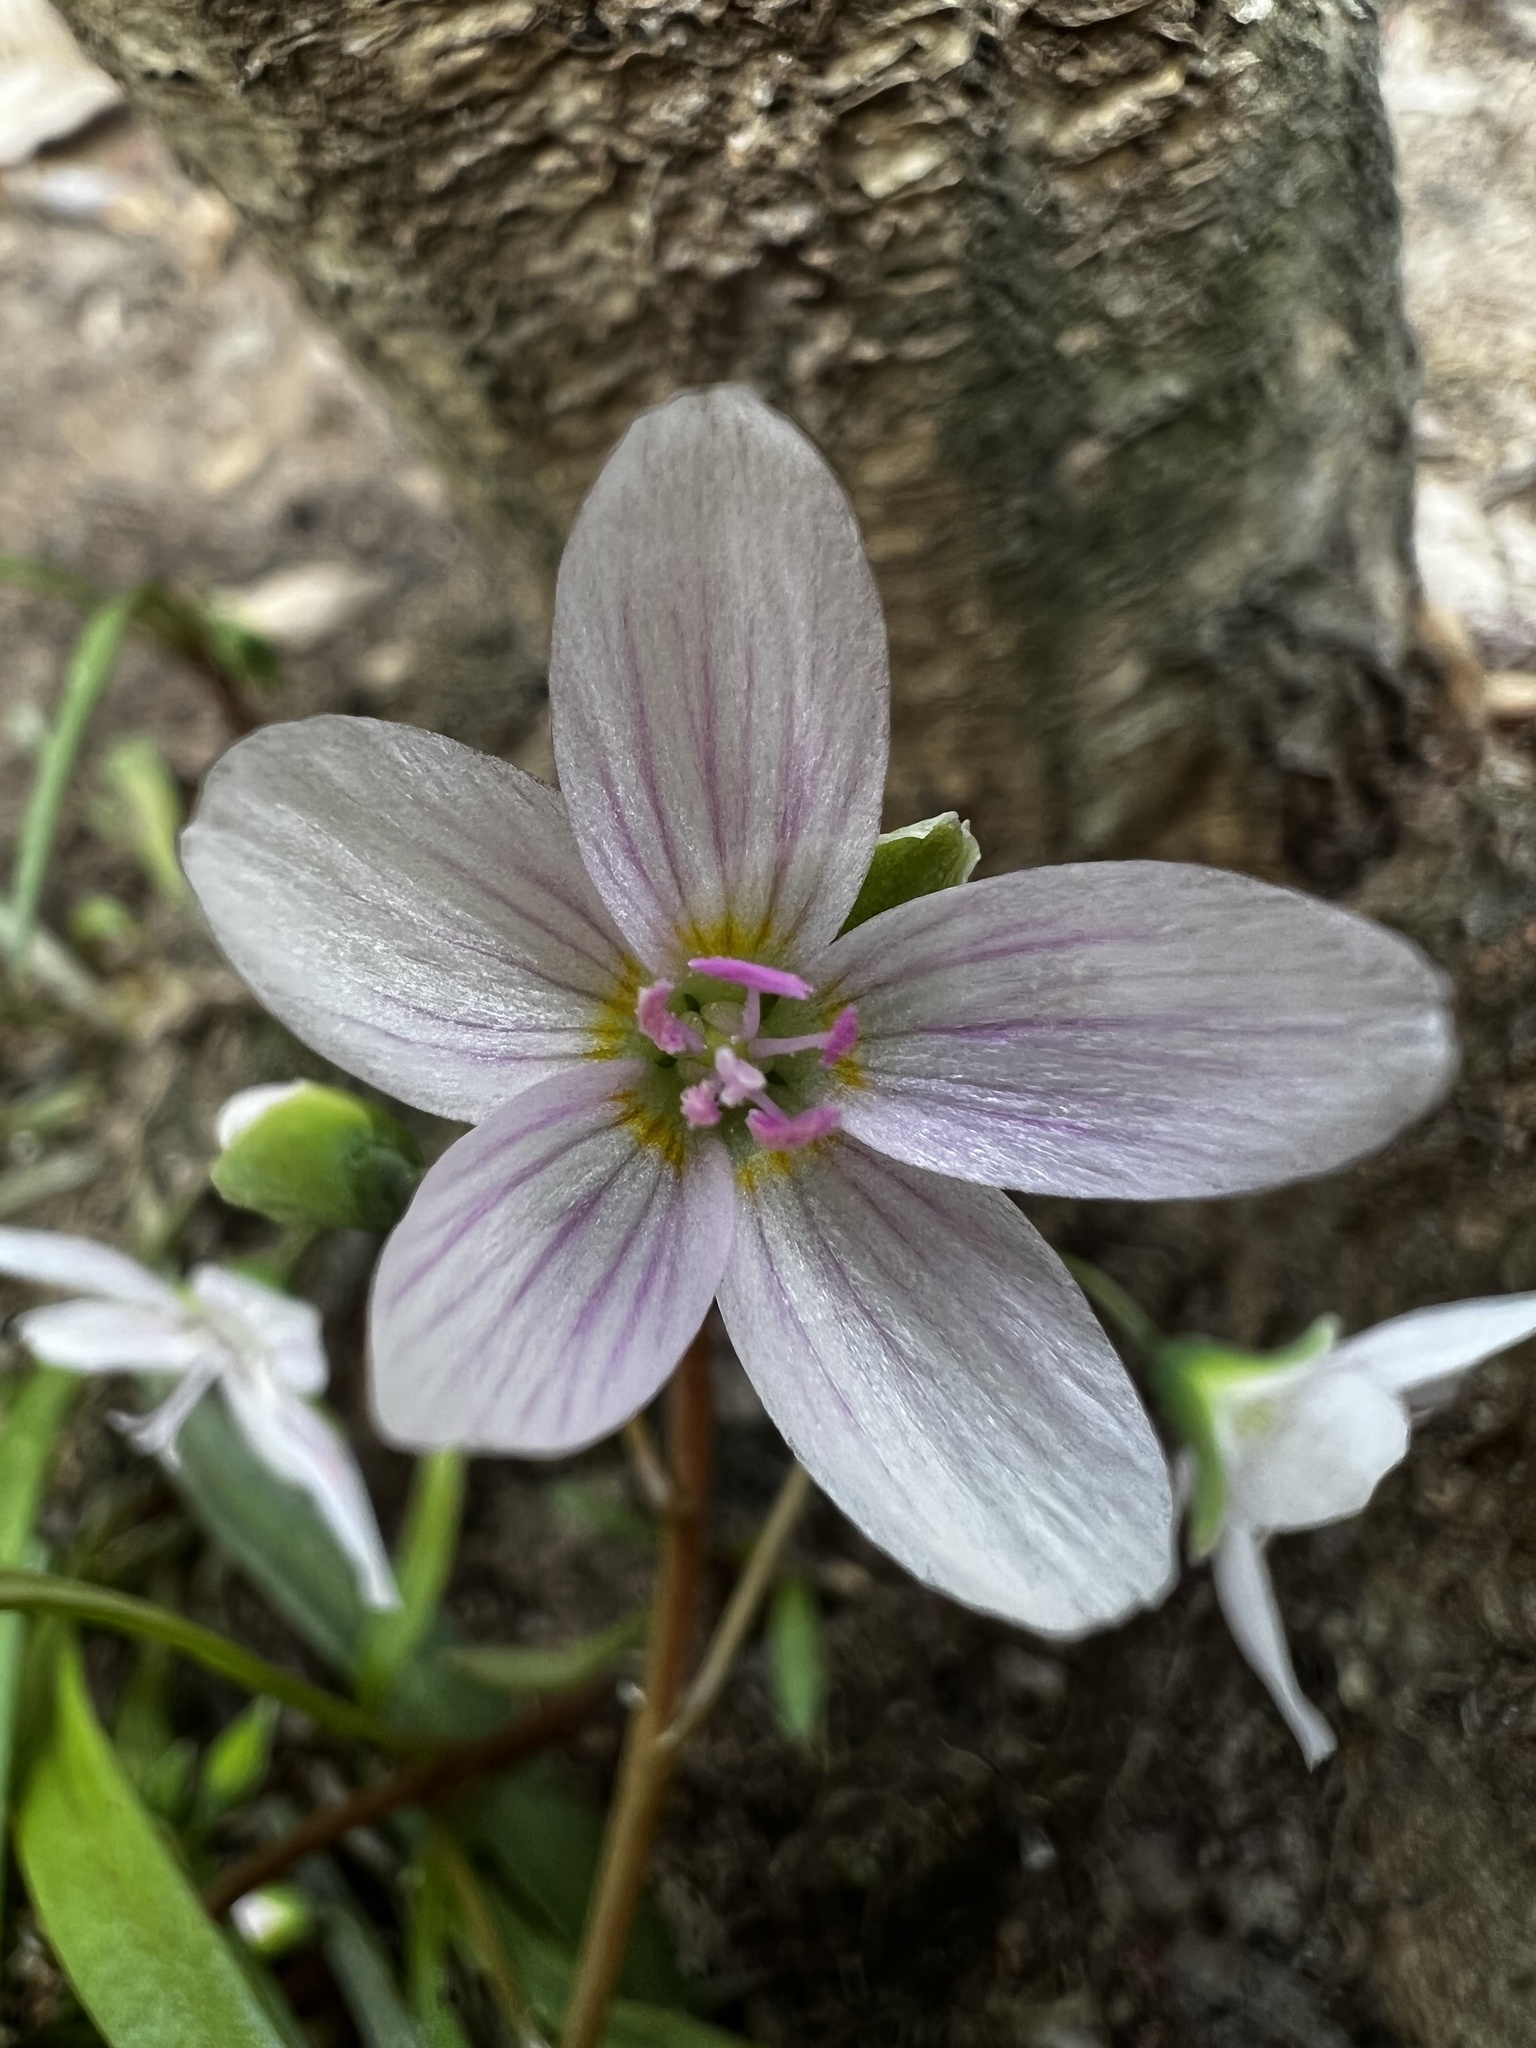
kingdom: Plantae
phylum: Tracheophyta
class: Magnoliopsida
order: Caryophyllales
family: Montiaceae
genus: Claytonia
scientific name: Claytonia virginica
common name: Virginia springbeauty
